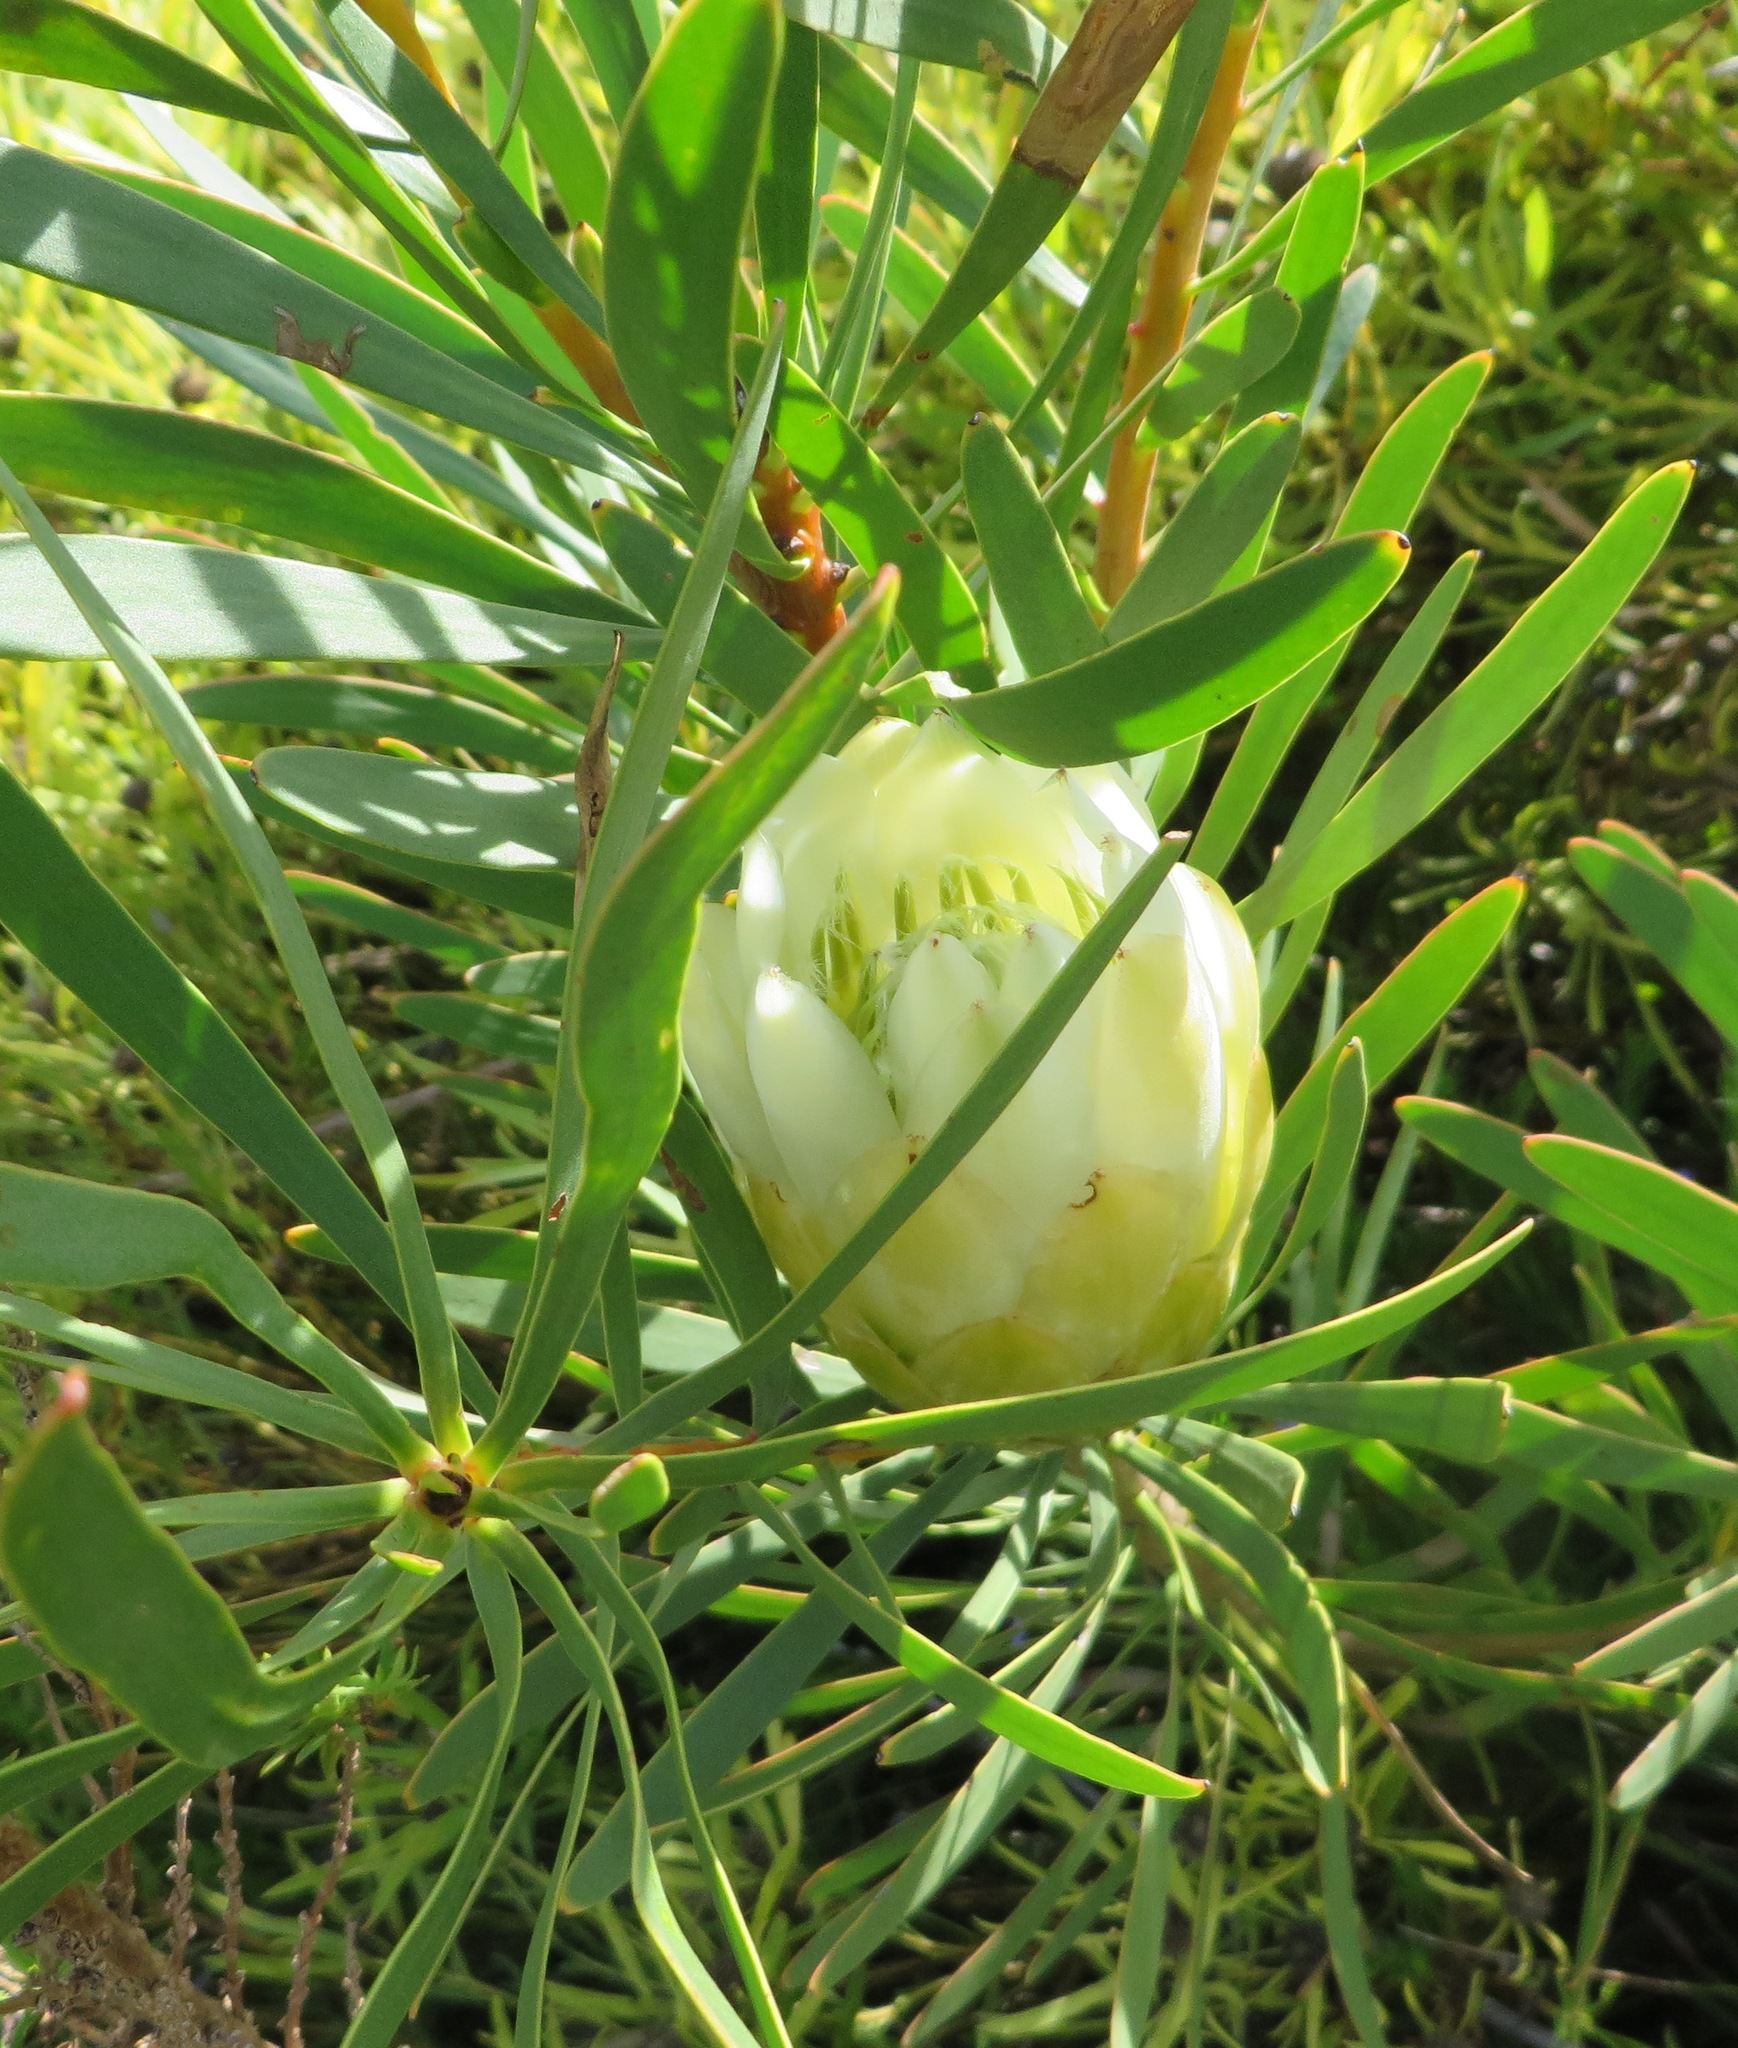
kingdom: Plantae
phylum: Tracheophyta
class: Magnoliopsida
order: Proteales
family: Proteaceae
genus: Protea
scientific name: Protea repens
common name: Sugarbush
